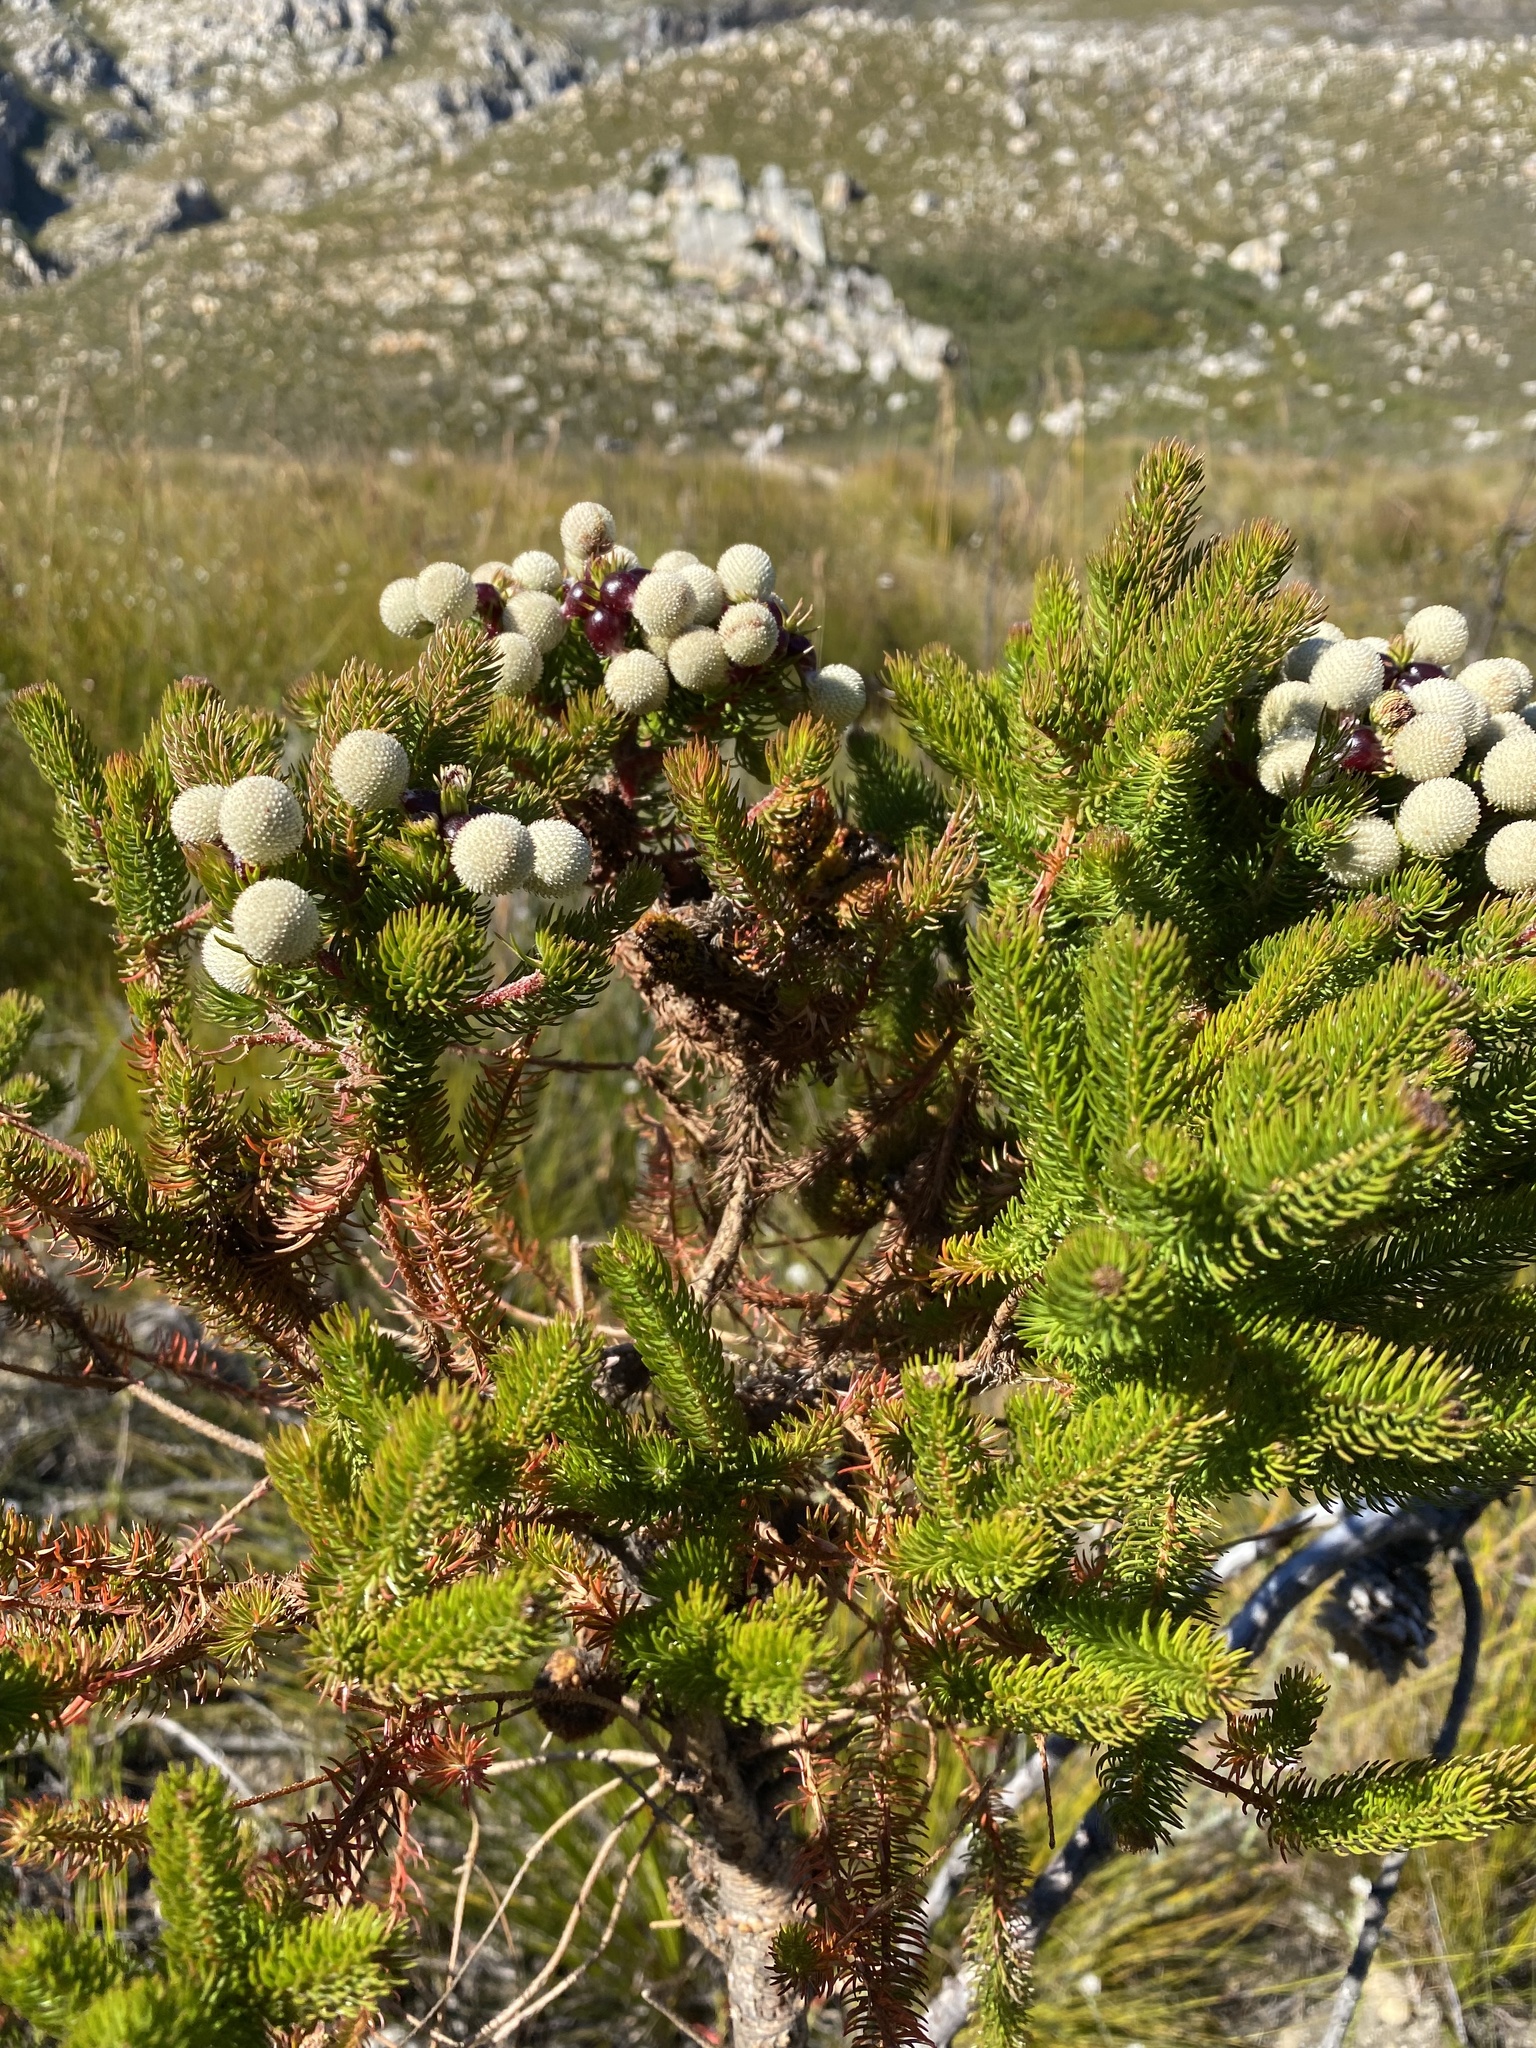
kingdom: Plantae
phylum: Tracheophyta
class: Magnoliopsida
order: Bruniales
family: Bruniaceae
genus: Berzelia
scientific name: Berzelia galpinii
